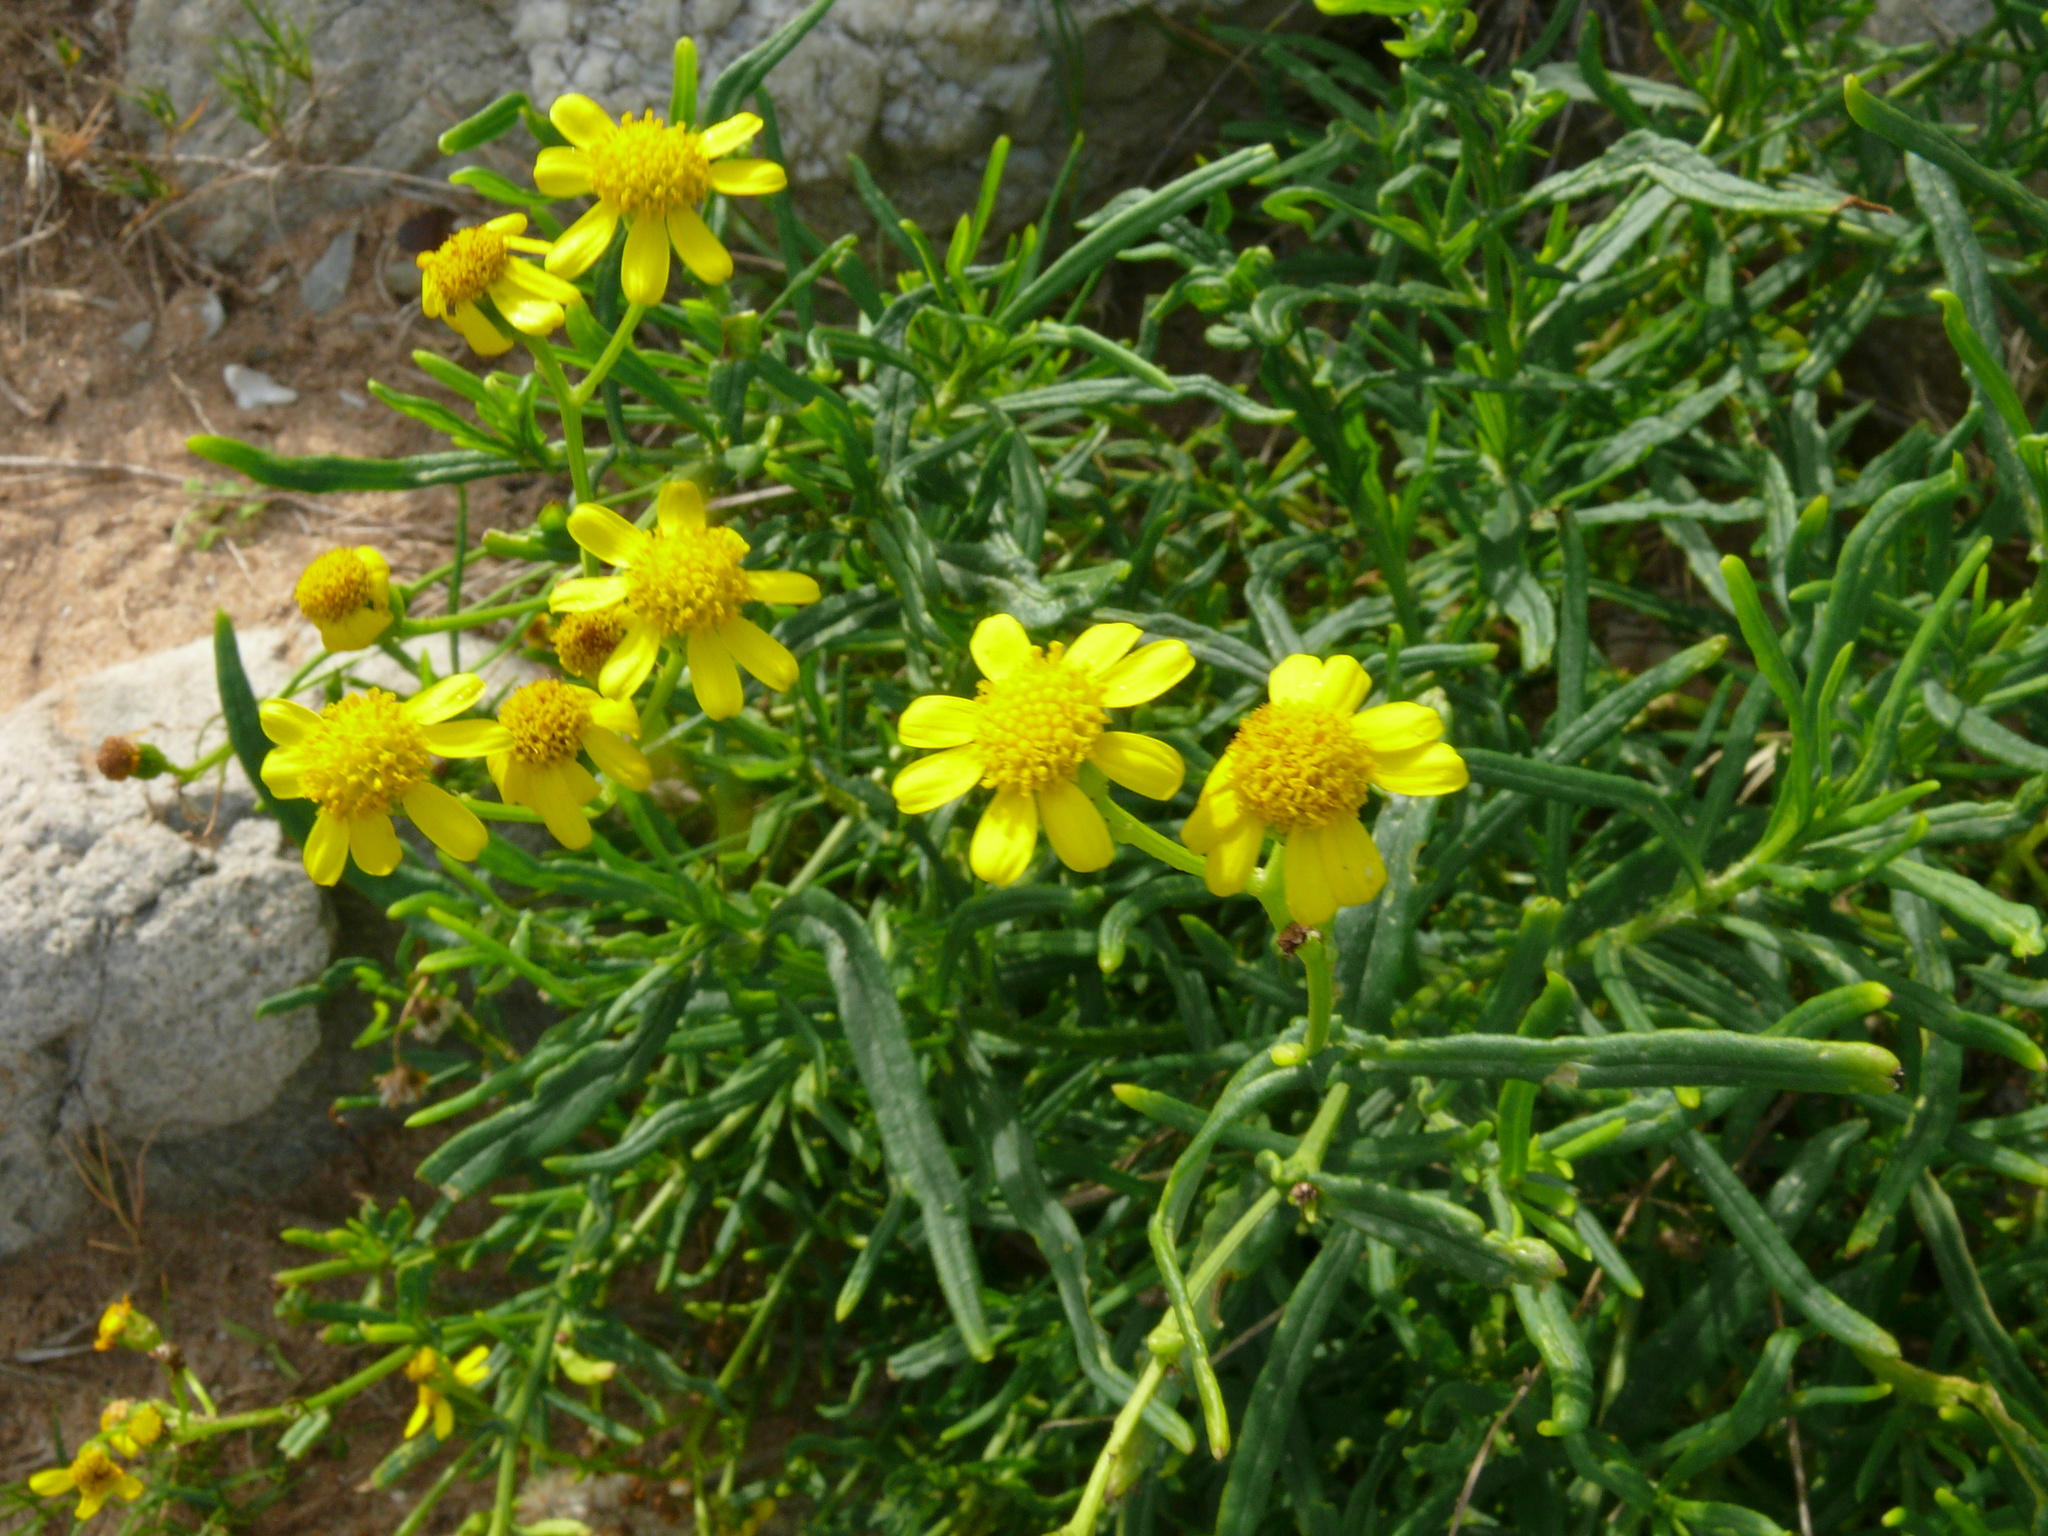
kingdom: Plantae
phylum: Tracheophyta
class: Magnoliopsida
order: Asterales
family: Asteraceae
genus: Senecio
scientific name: Senecio burchellii
